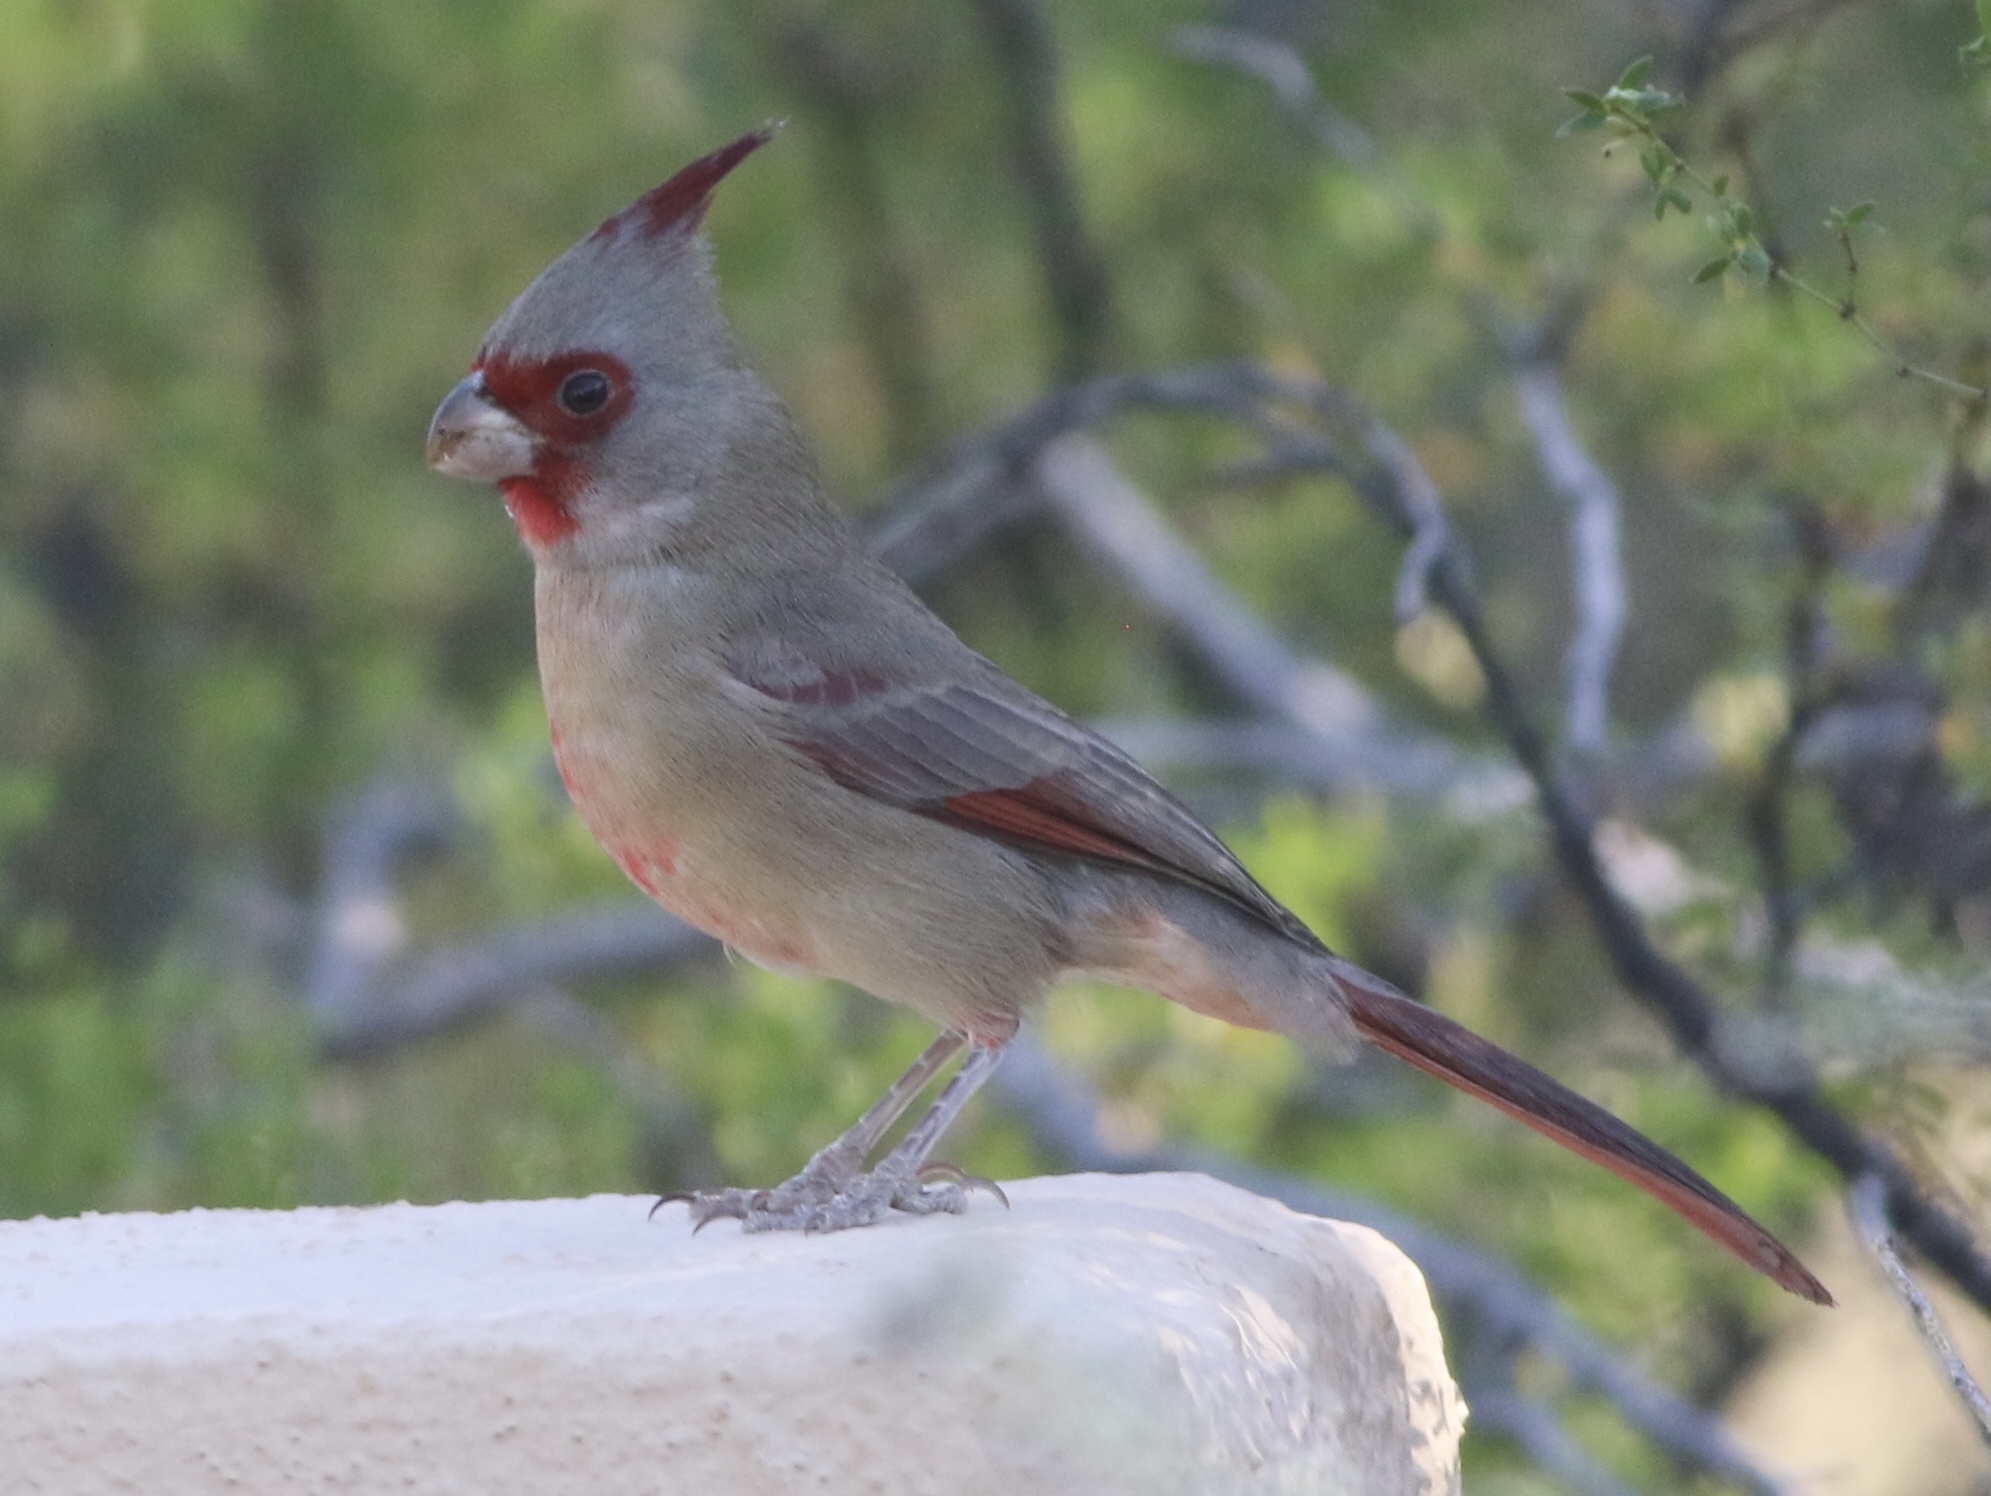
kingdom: Animalia
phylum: Chordata
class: Aves
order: Passeriformes
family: Cardinalidae
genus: Cardinalis
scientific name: Cardinalis sinuatus
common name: Pyrrhuloxia
